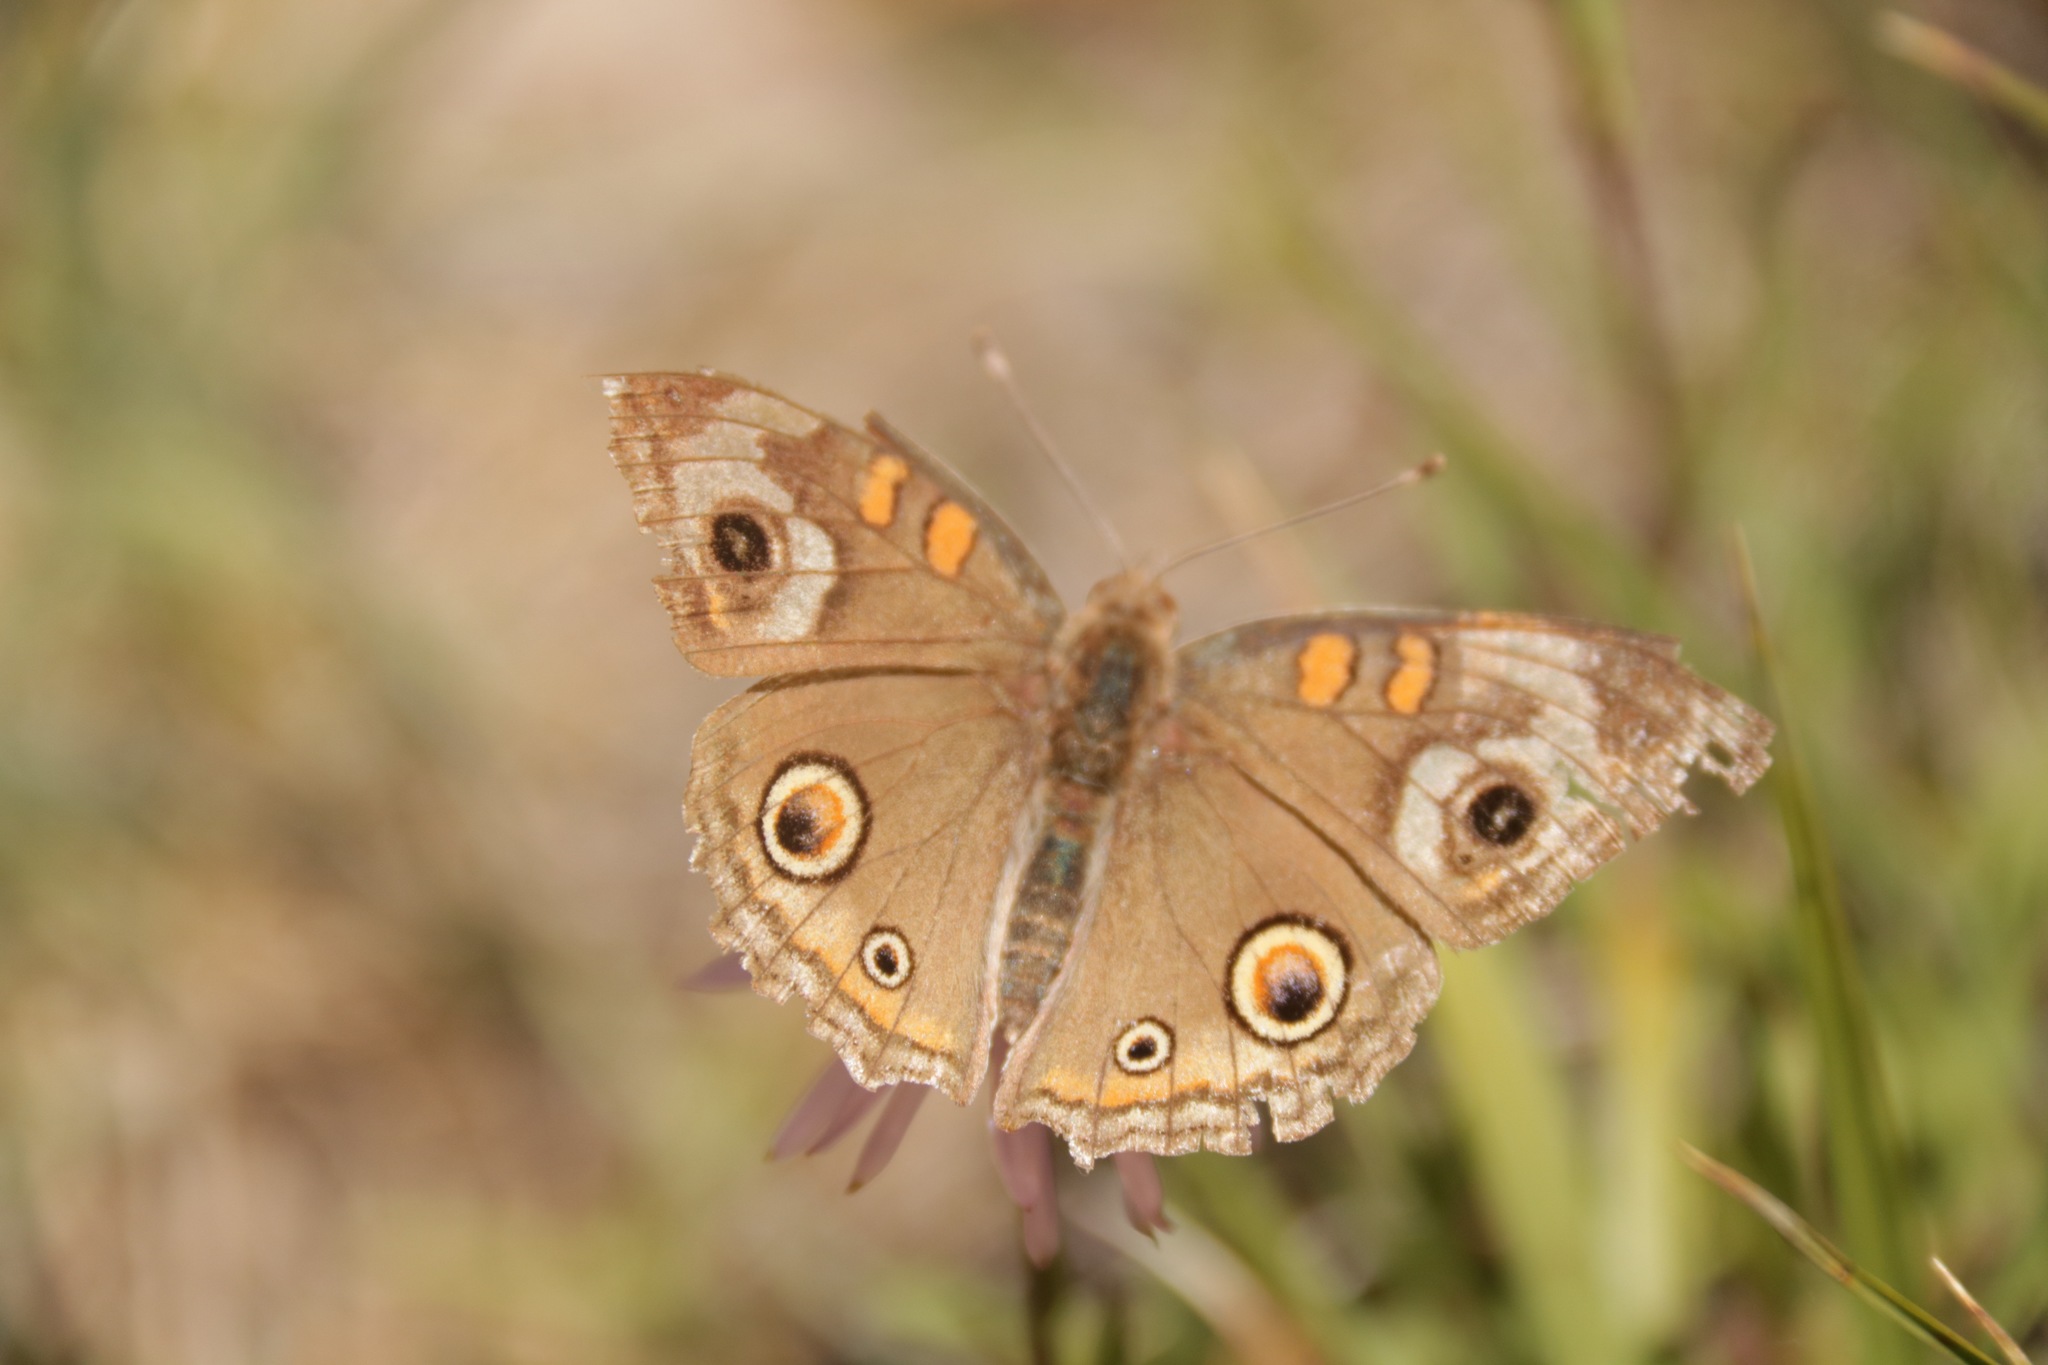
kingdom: Animalia
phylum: Arthropoda
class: Insecta
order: Lepidoptera
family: Nymphalidae
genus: Junonia
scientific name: Junonia grisea
